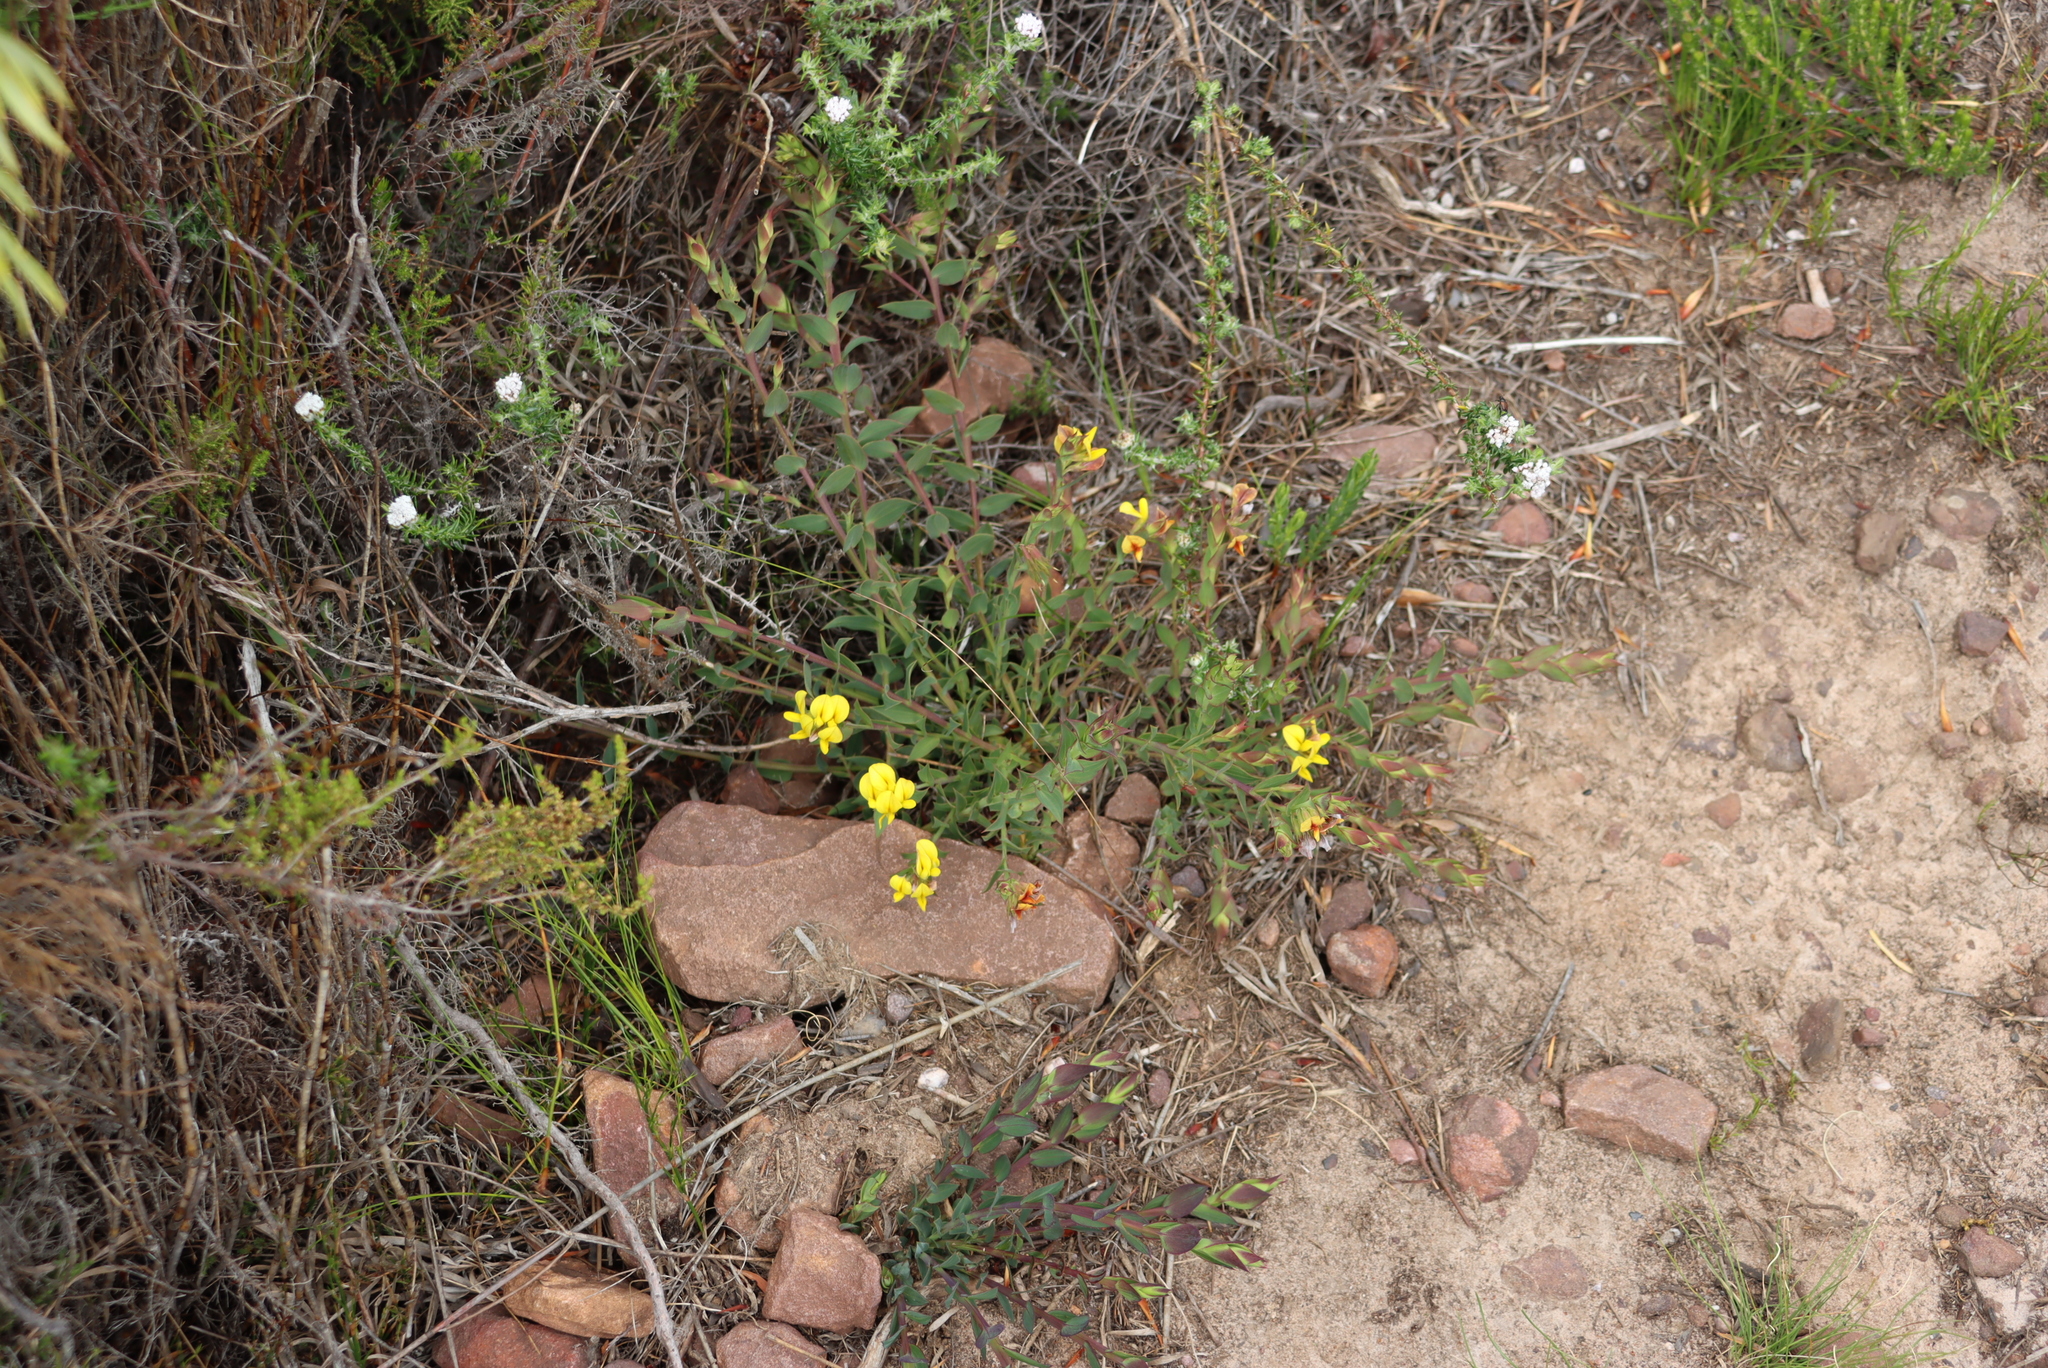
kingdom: Plantae
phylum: Tracheophyta
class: Magnoliopsida
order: Fabales
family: Fabaceae
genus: Aspalathus
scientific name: Aspalathus crenata
